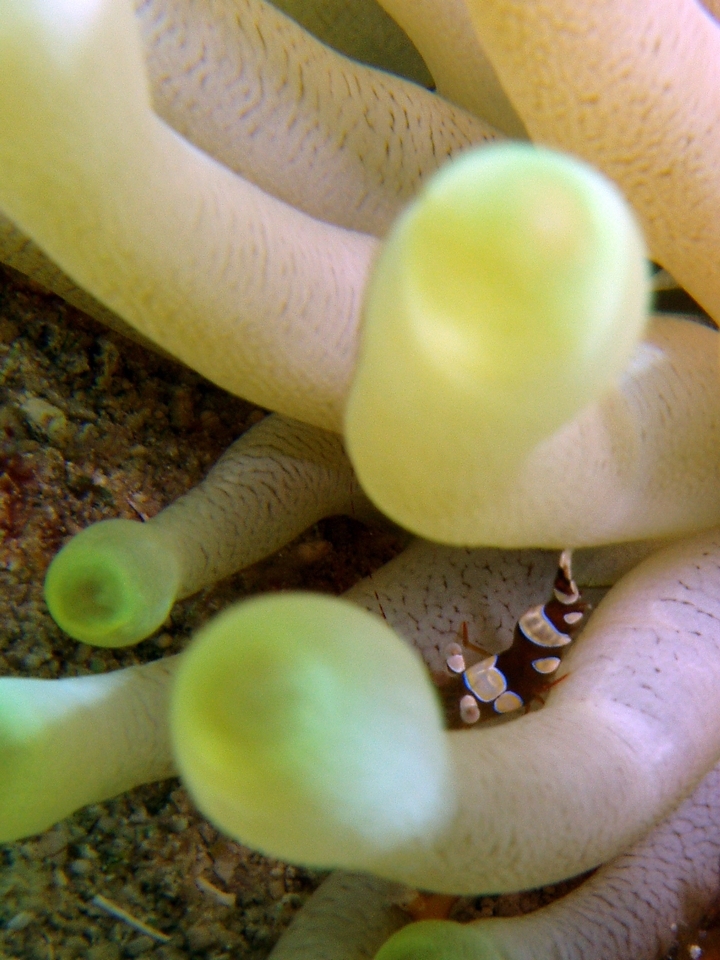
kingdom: Animalia
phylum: Arthropoda
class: Malacostraca
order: Decapoda
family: Thoridae
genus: Thor
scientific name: Thor dicaprio
